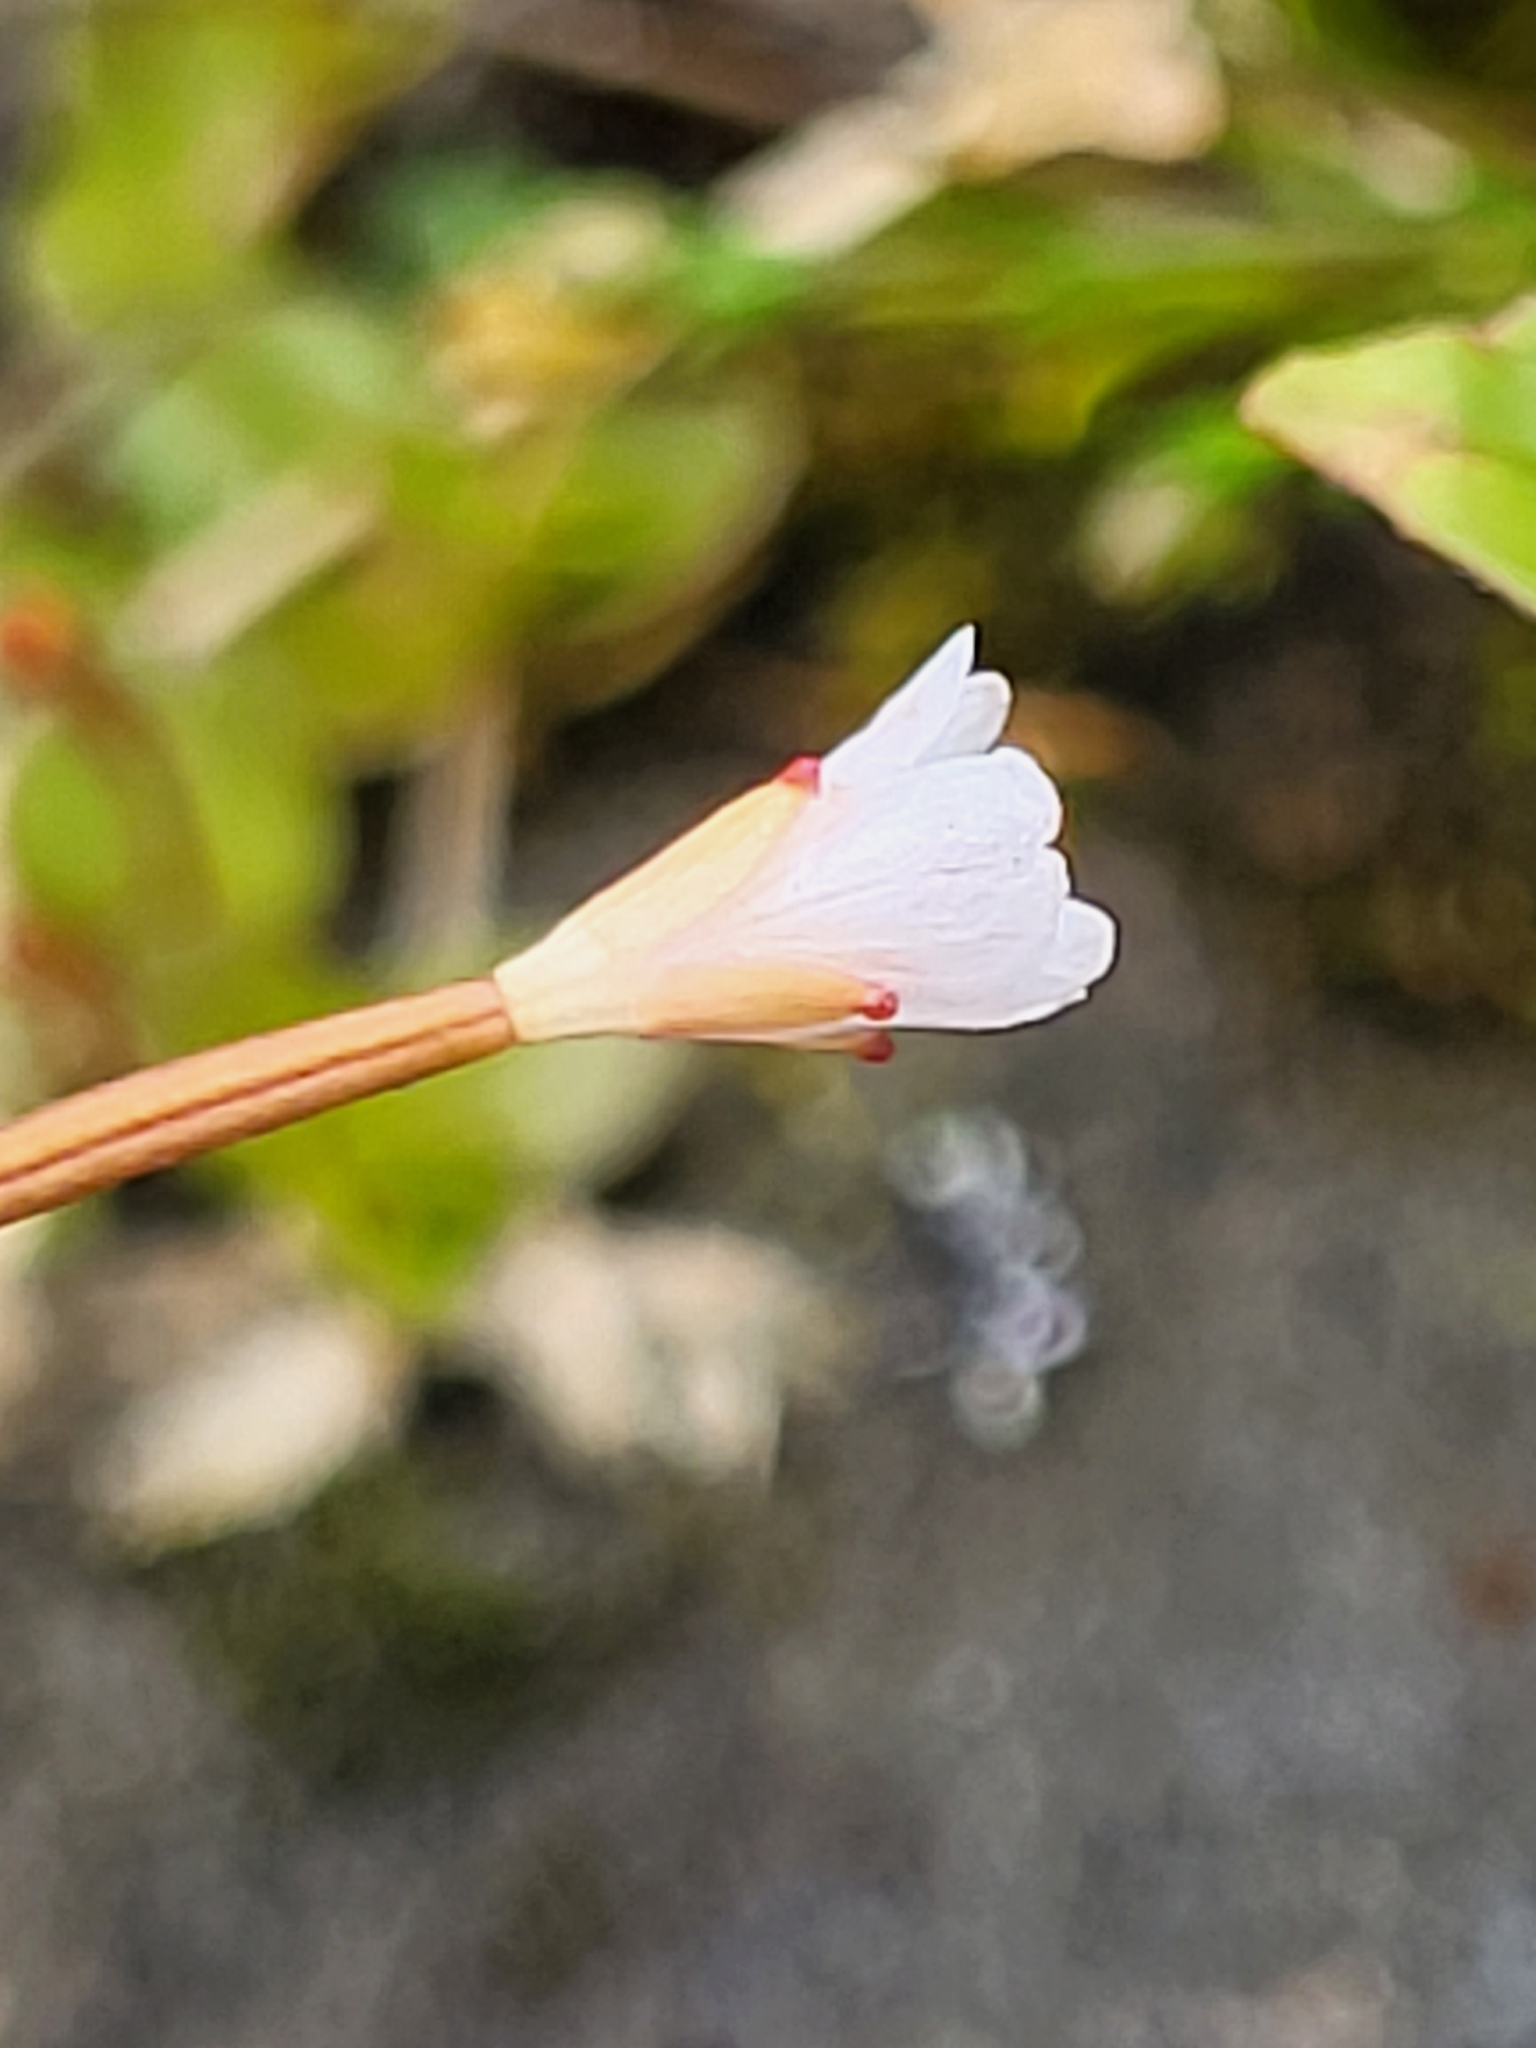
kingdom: Plantae
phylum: Tracheophyta
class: Magnoliopsida
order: Myrtales
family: Onagraceae
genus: Epilobium
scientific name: Epilobium brunnescens
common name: New zealand willowherb
